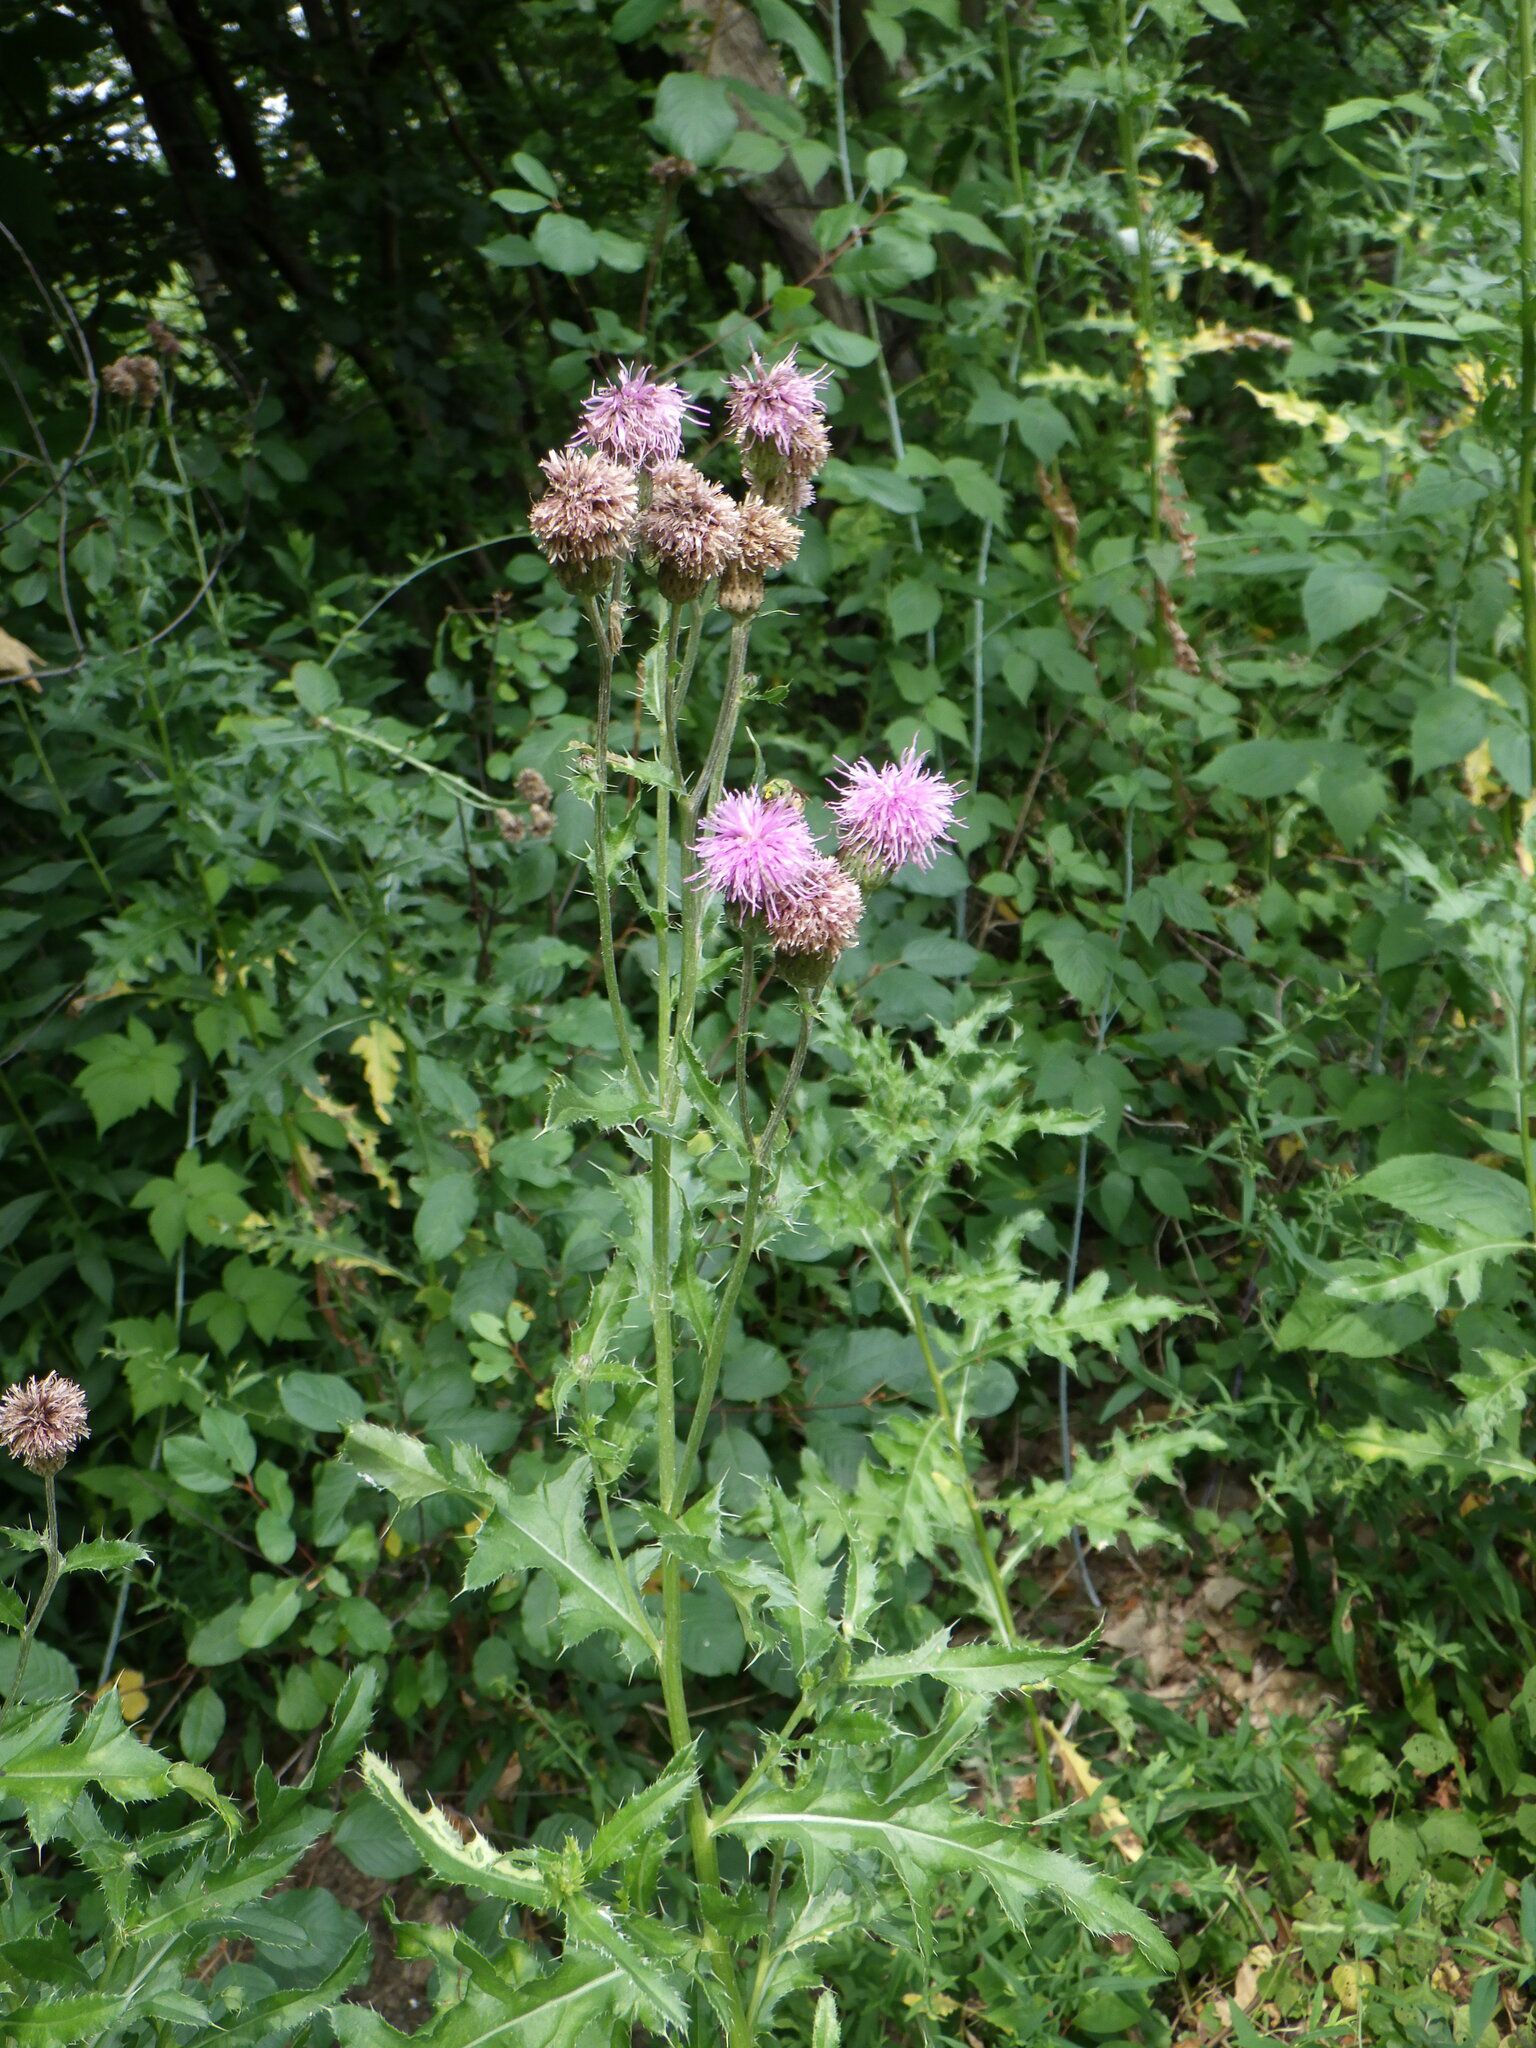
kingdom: Plantae
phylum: Tracheophyta
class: Magnoliopsida
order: Asterales
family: Asteraceae
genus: Cirsium
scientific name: Cirsium arvense
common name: Creeping thistle
